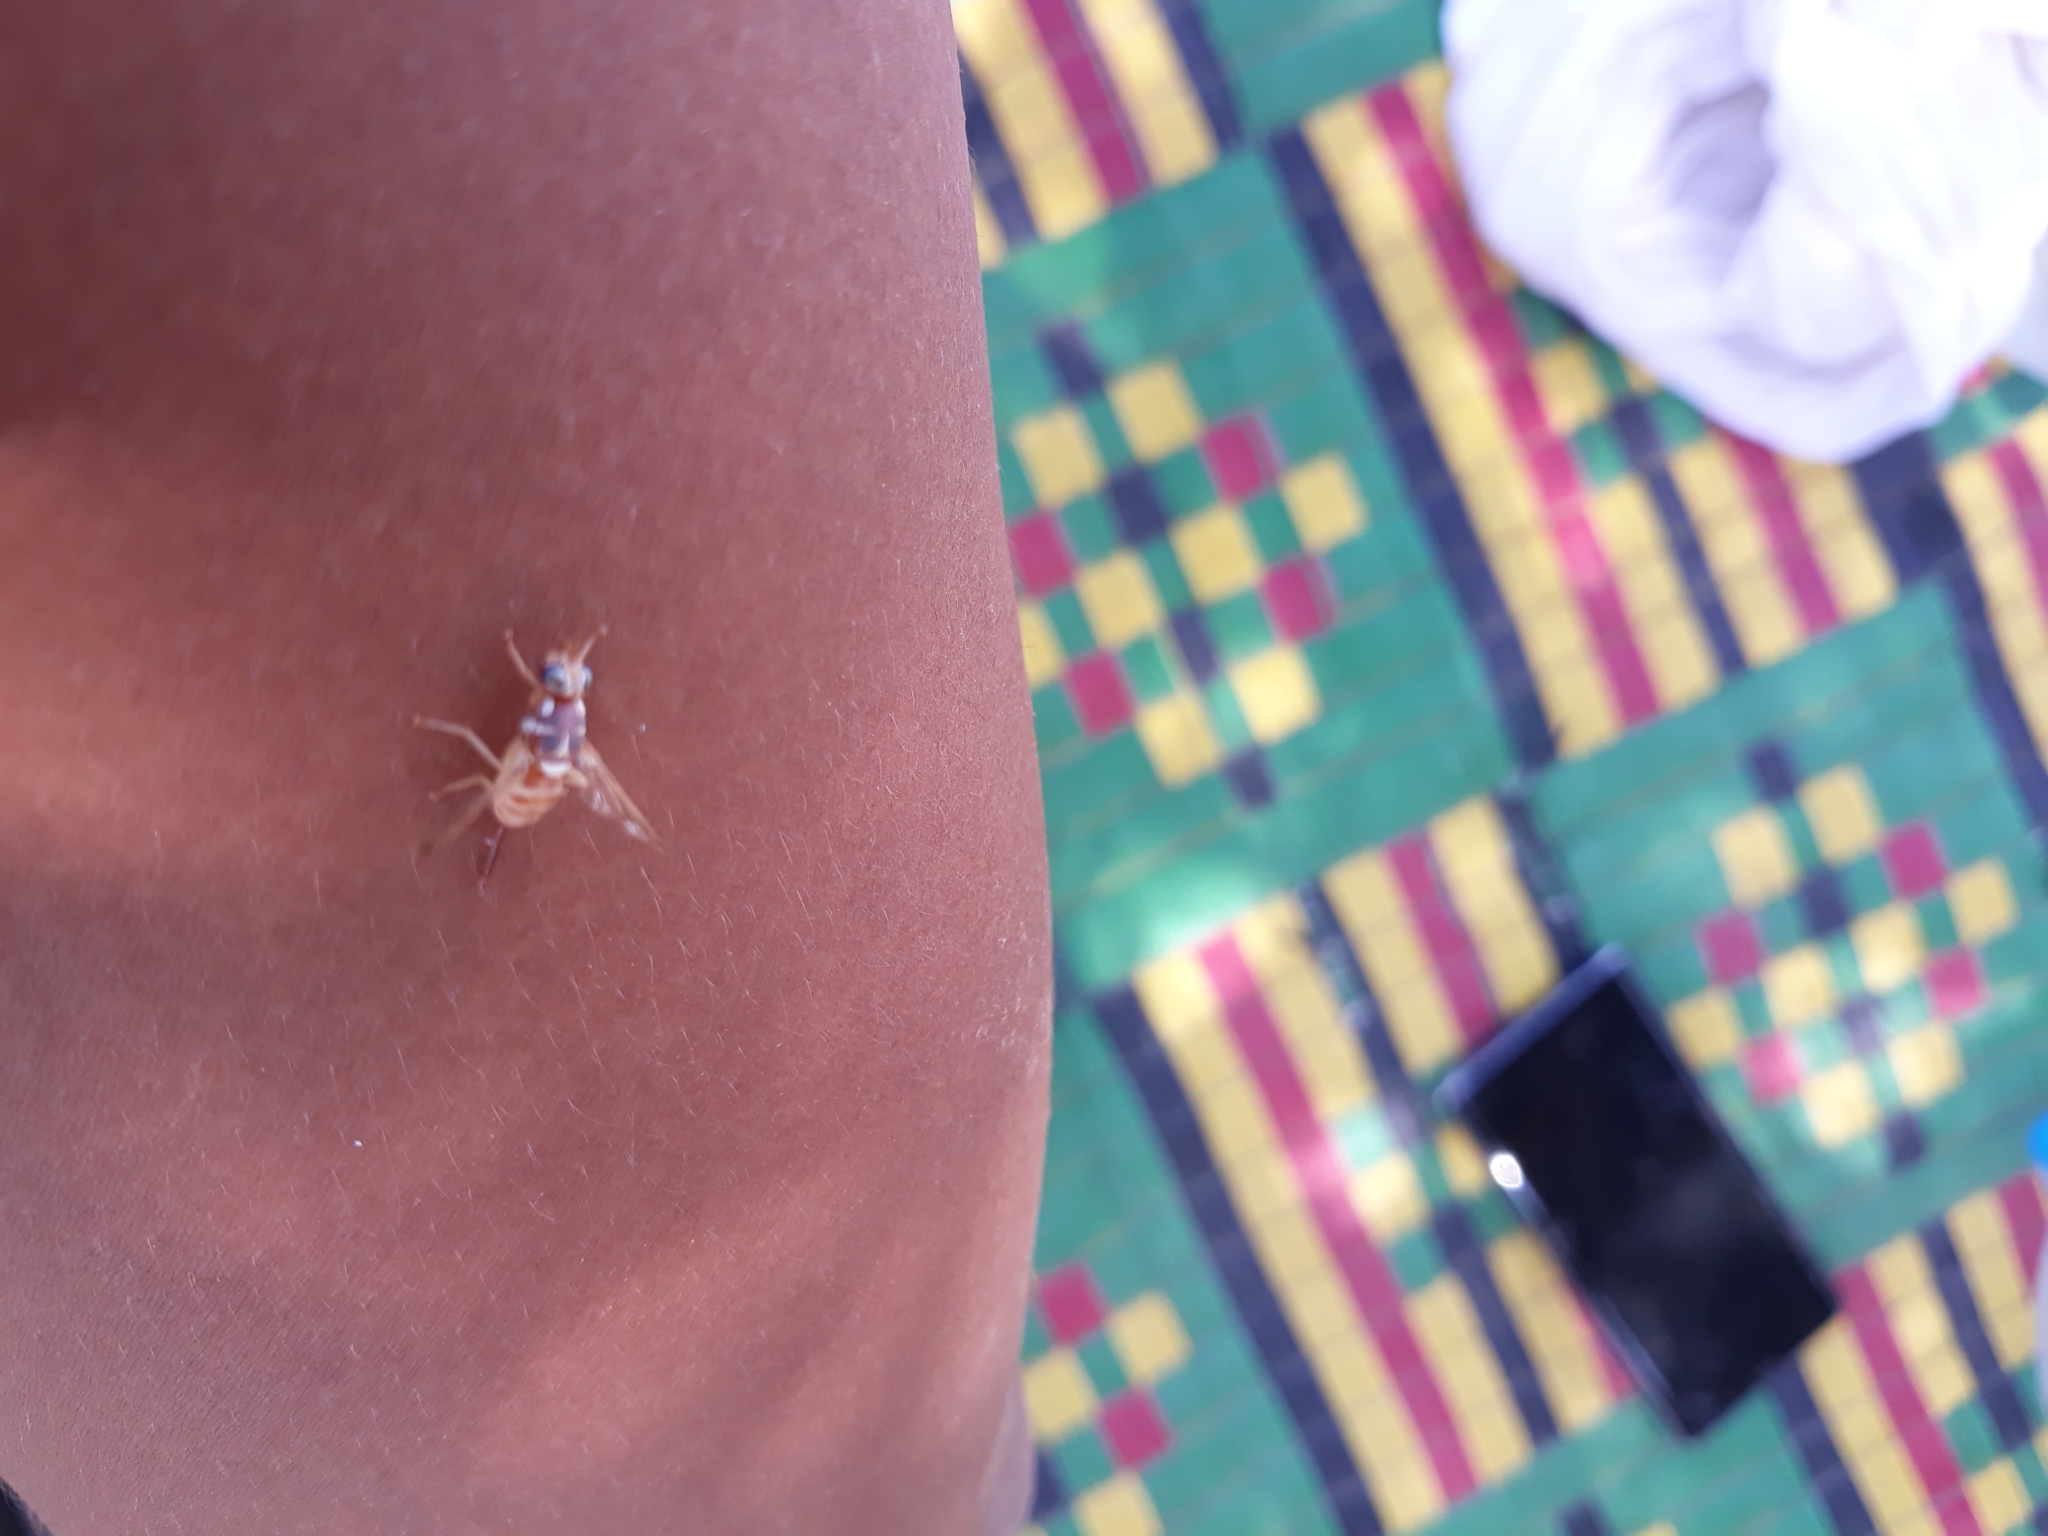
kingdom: Animalia
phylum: Arthropoda
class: Insecta
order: Diptera
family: Tephritidae
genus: Dacus
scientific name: Dacus longistylus
